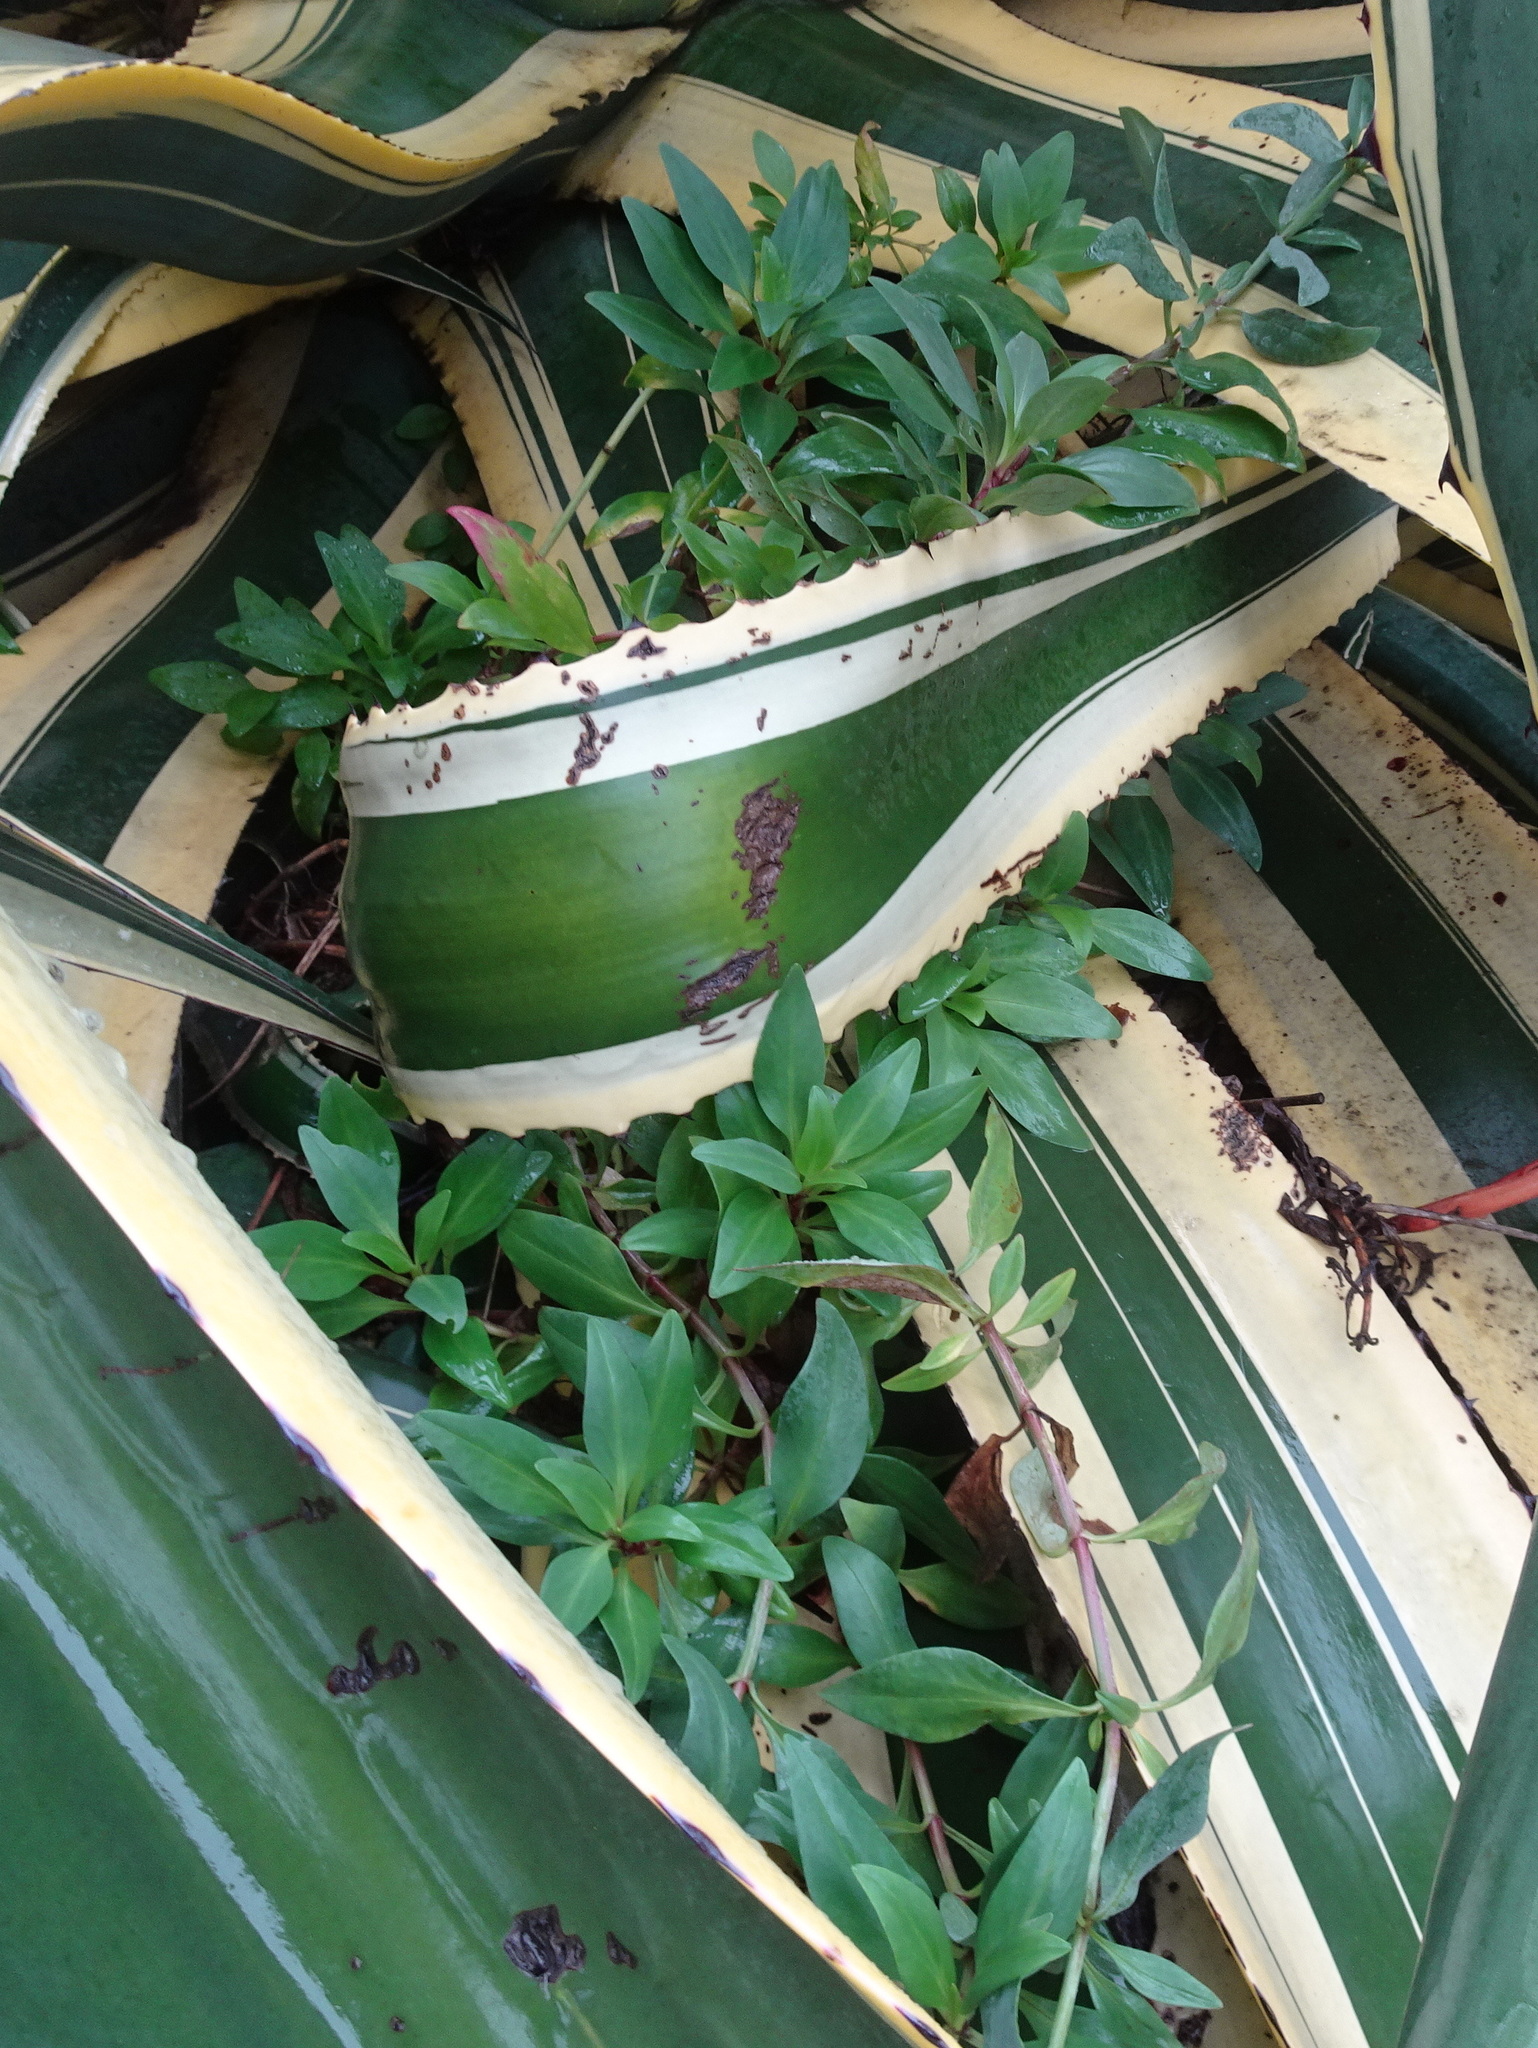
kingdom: Plantae
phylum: Tracheophyta
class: Magnoliopsida
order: Dipsacales
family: Caprifoliaceae
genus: Centranthus
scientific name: Centranthus ruber
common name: Red valerian
